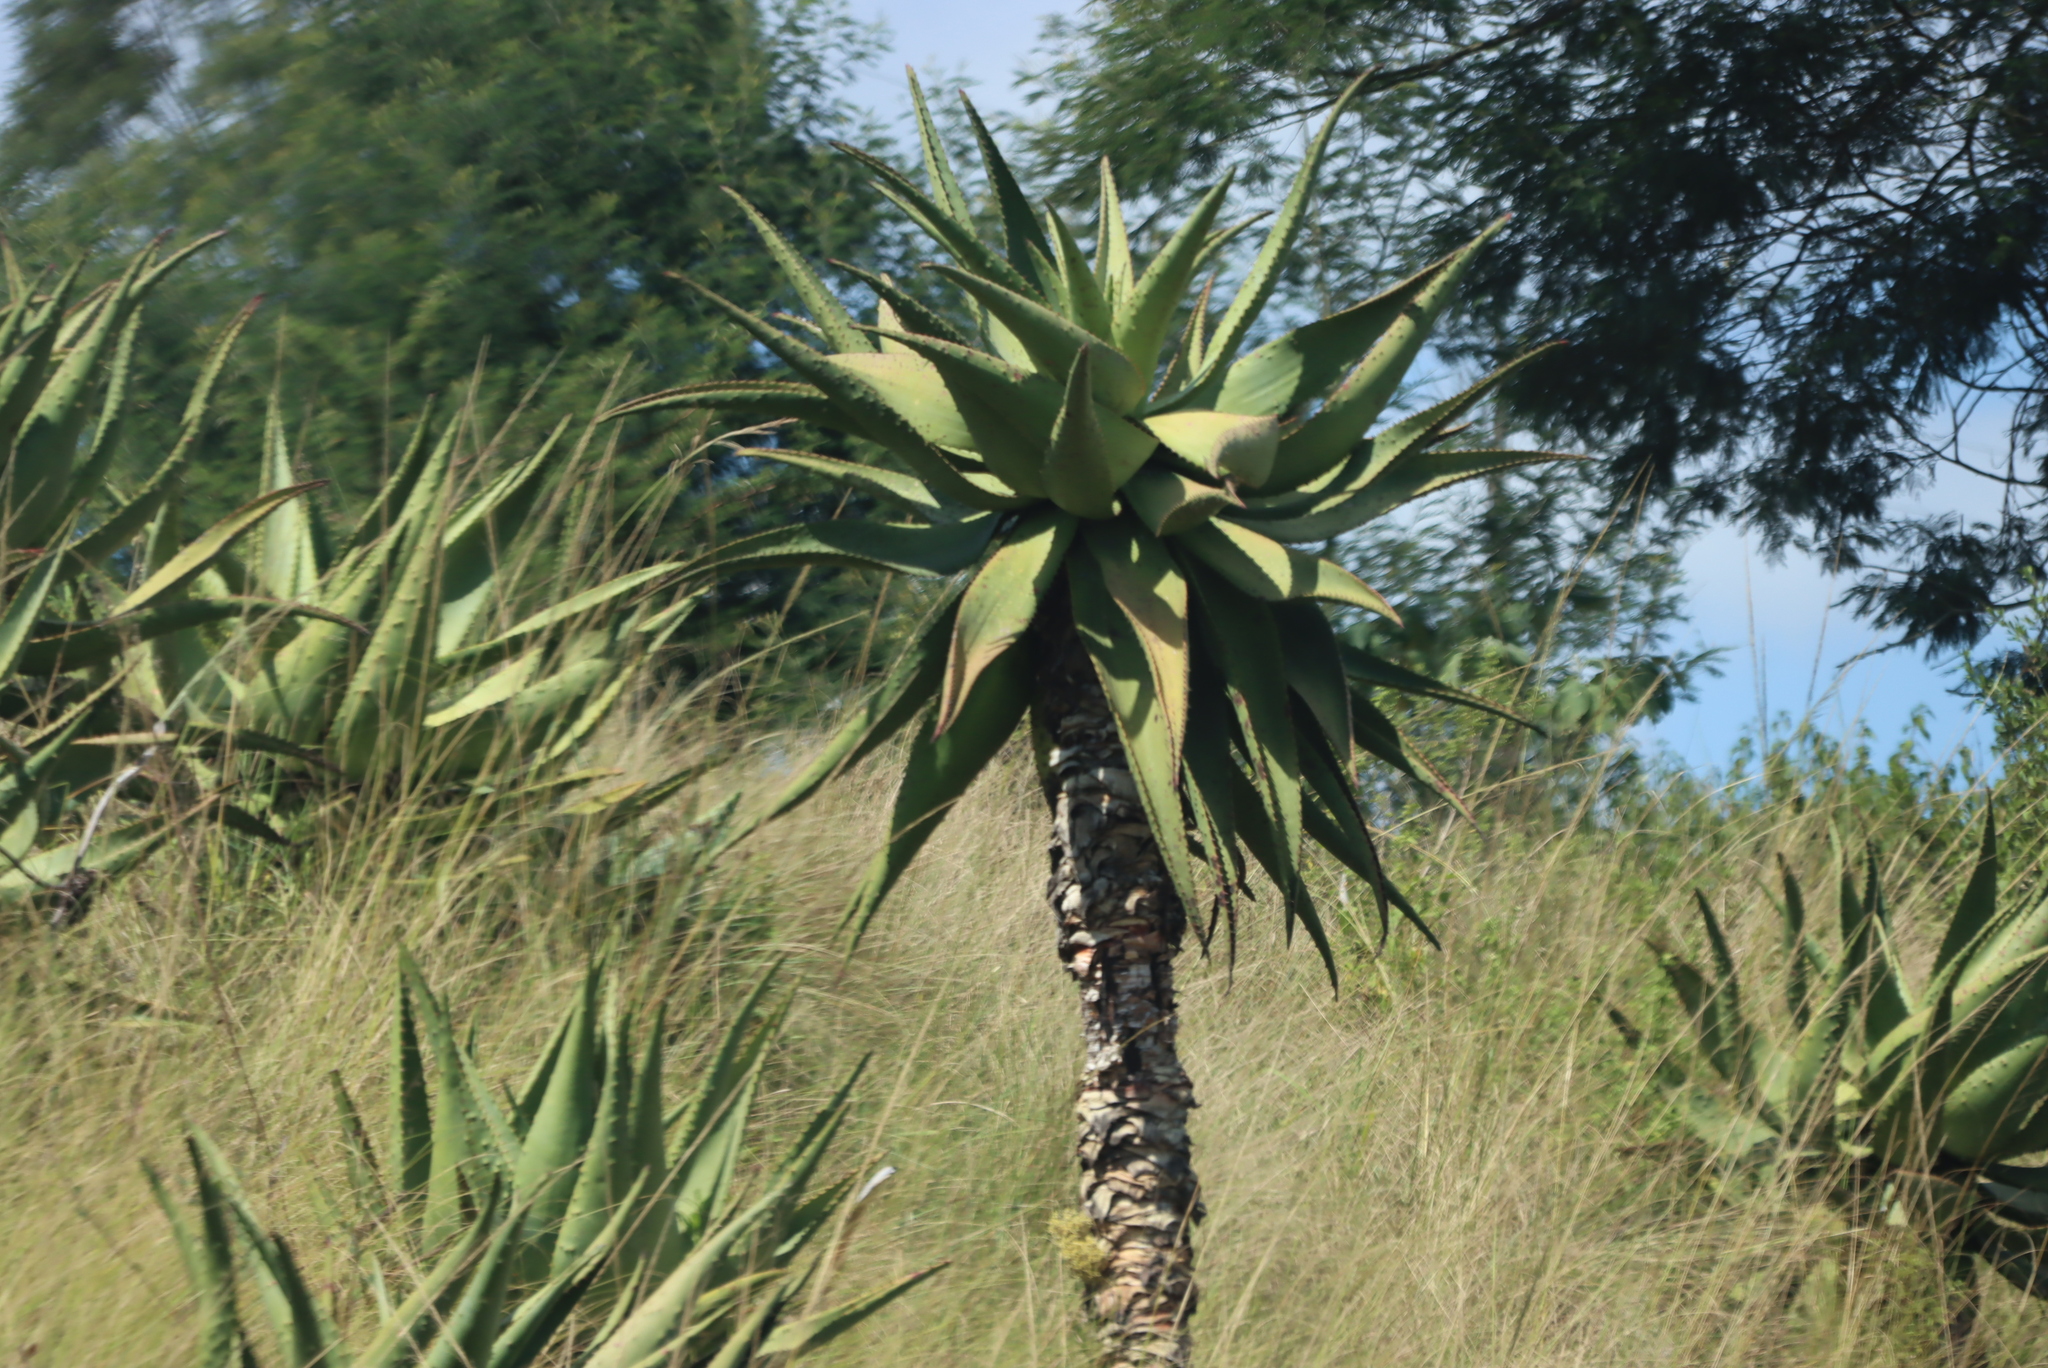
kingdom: Plantae
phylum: Tracheophyta
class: Liliopsida
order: Asparagales
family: Asphodelaceae
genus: Aloe
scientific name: Aloe marlothii
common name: Flat-flowered aloe
